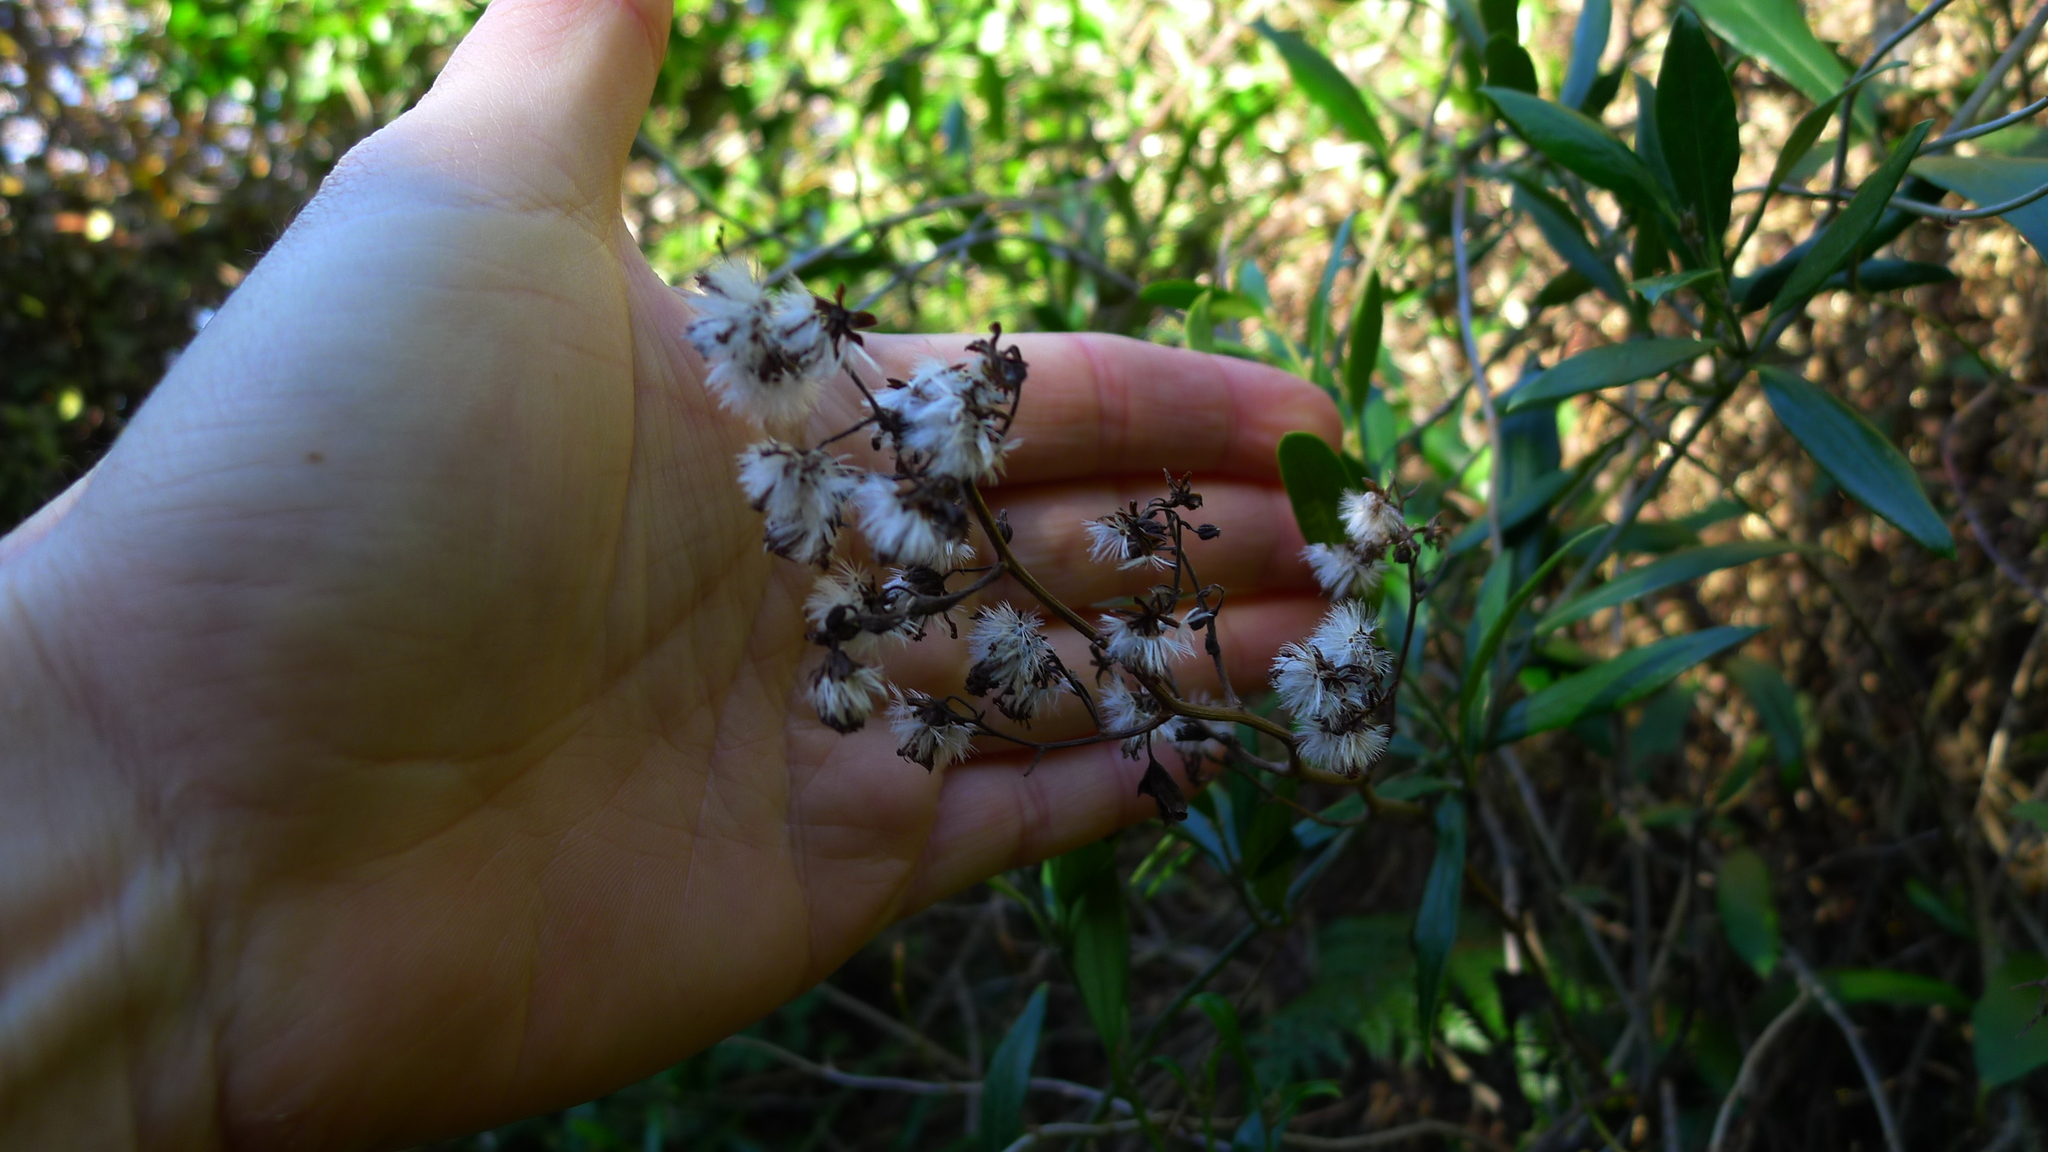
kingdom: Plantae
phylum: Tracheophyta
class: Magnoliopsida
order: Asterales
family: Asteraceae
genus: Brachyglottis
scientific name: Brachyglottis sciadophila
